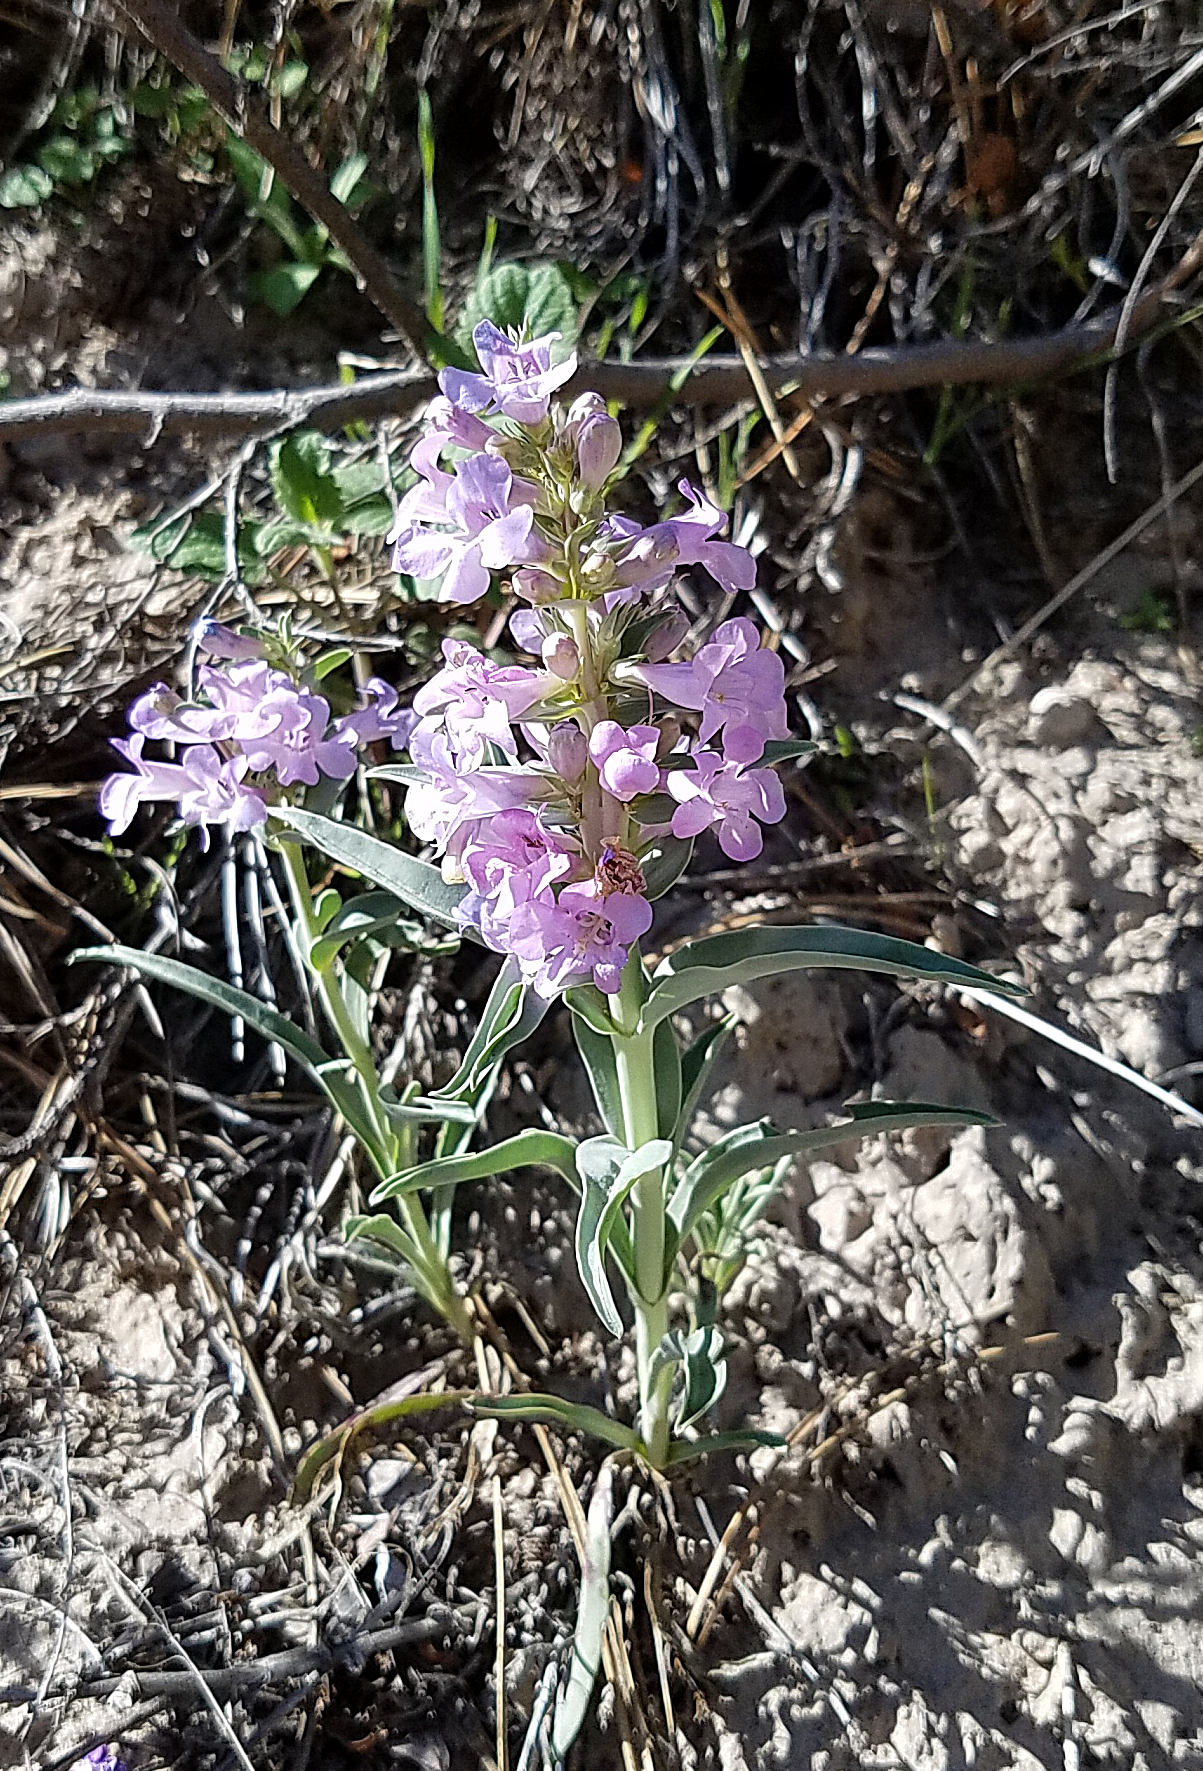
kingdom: Plantae
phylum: Tracheophyta
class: Magnoliopsida
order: Lamiales
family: Plantaginaceae
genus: Penstemon
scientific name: Penstemon angustifolius
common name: Narrow beardtongue
